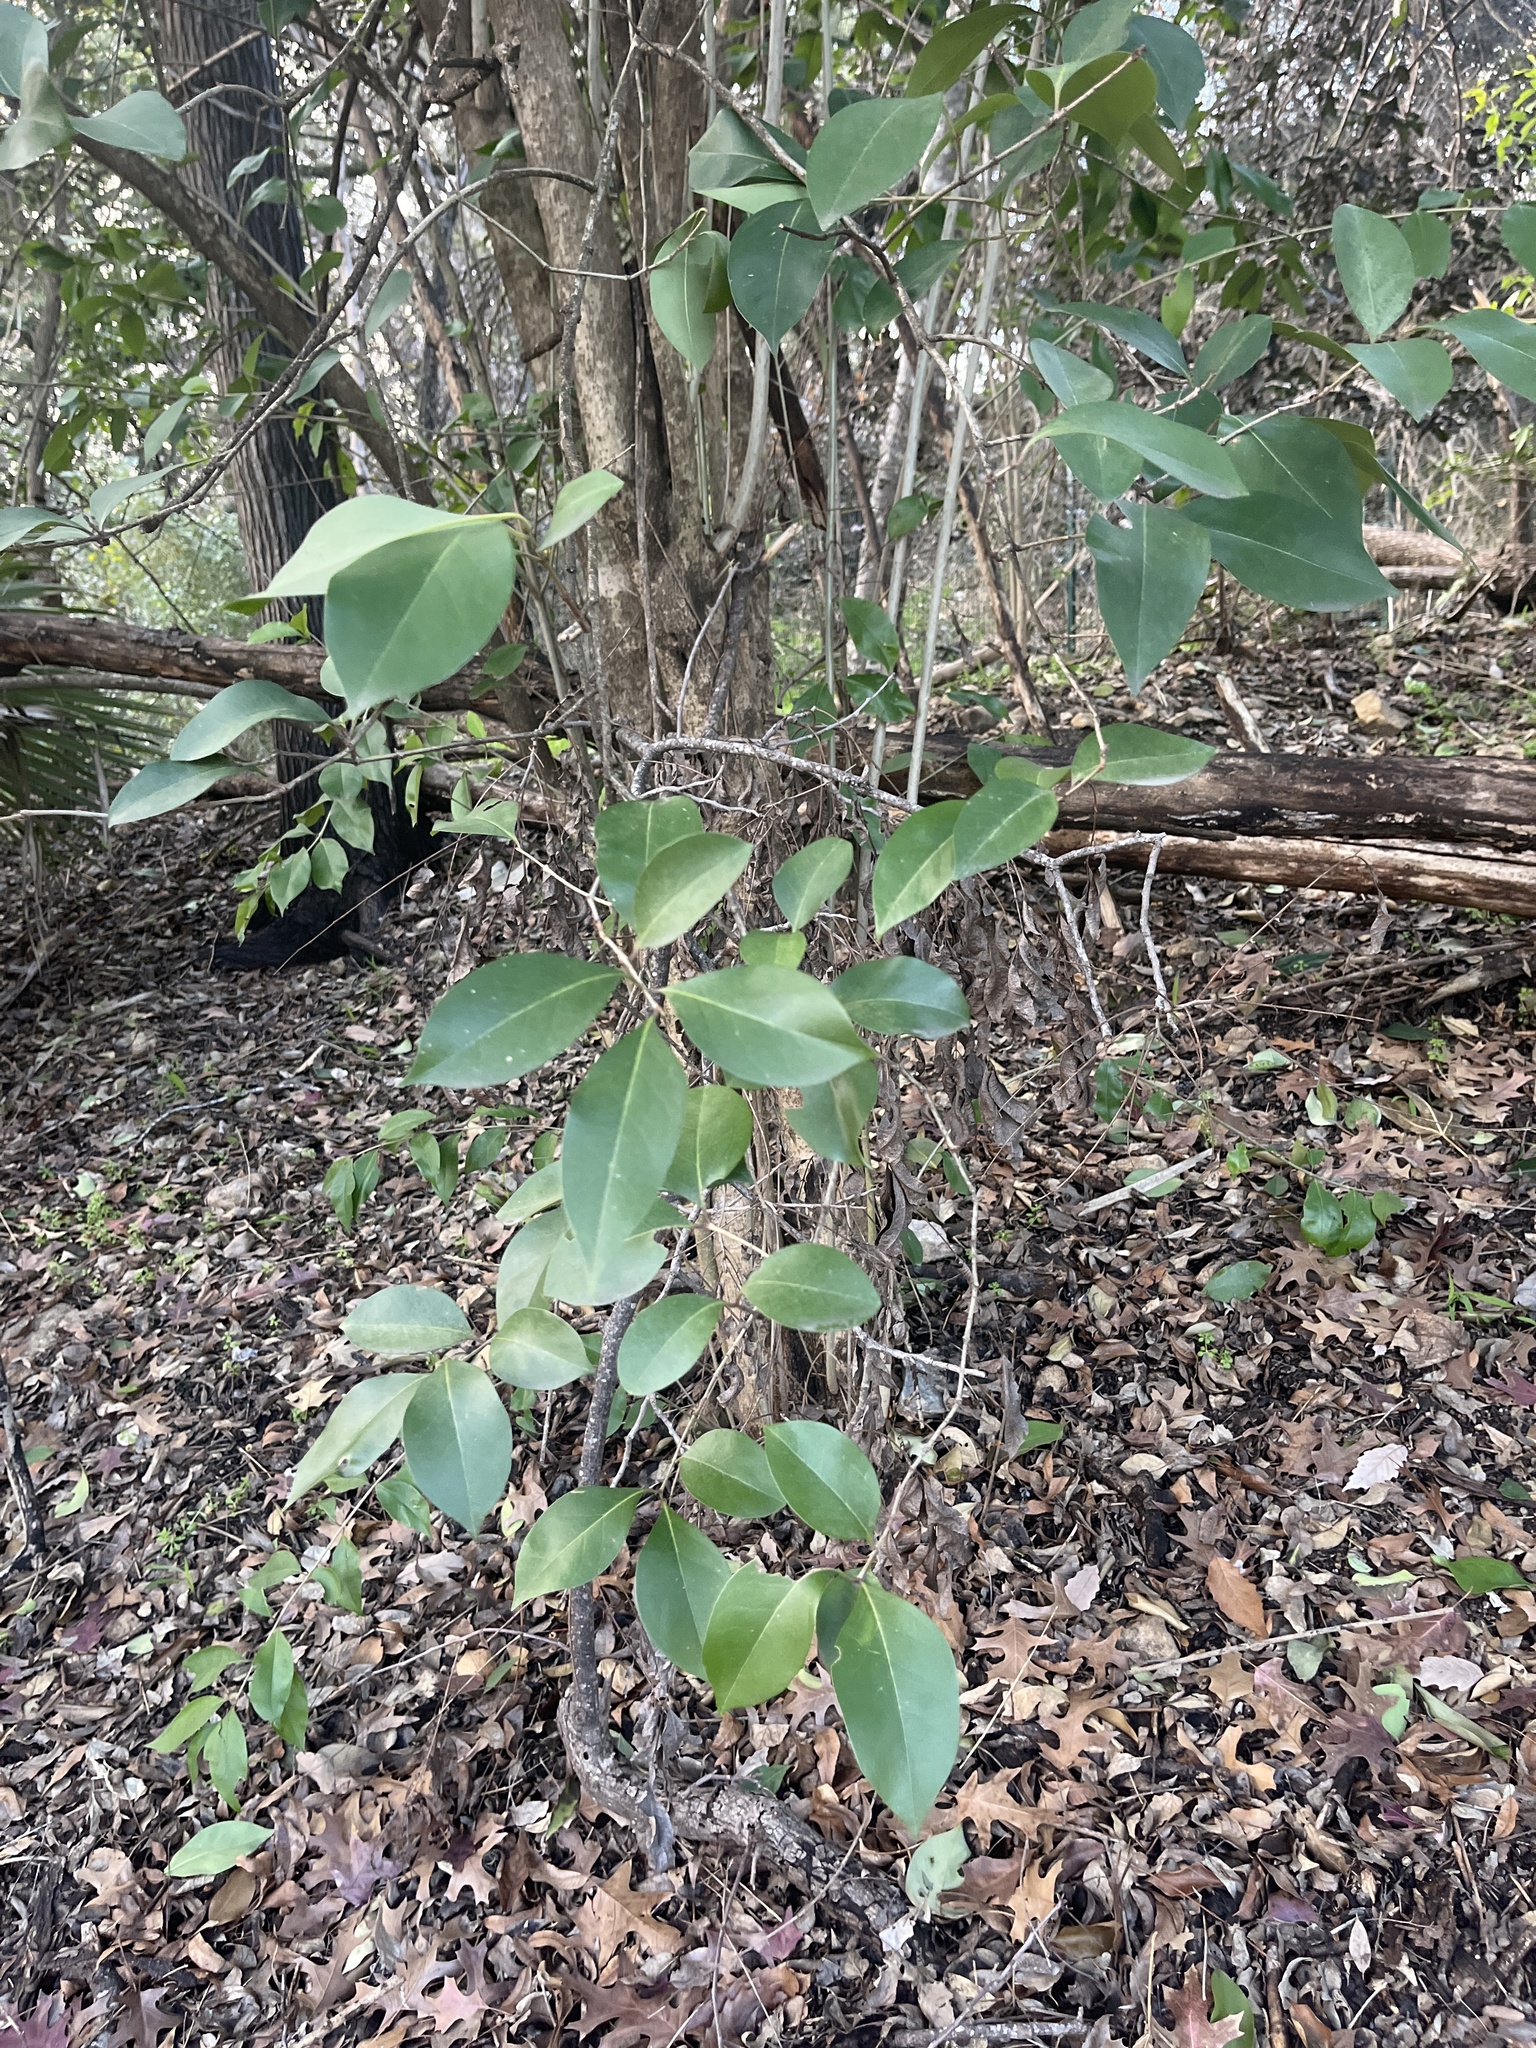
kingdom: Plantae
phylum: Tracheophyta
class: Magnoliopsida
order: Lamiales
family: Oleaceae
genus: Ligustrum
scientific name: Ligustrum lucidum
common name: Glossy privet
